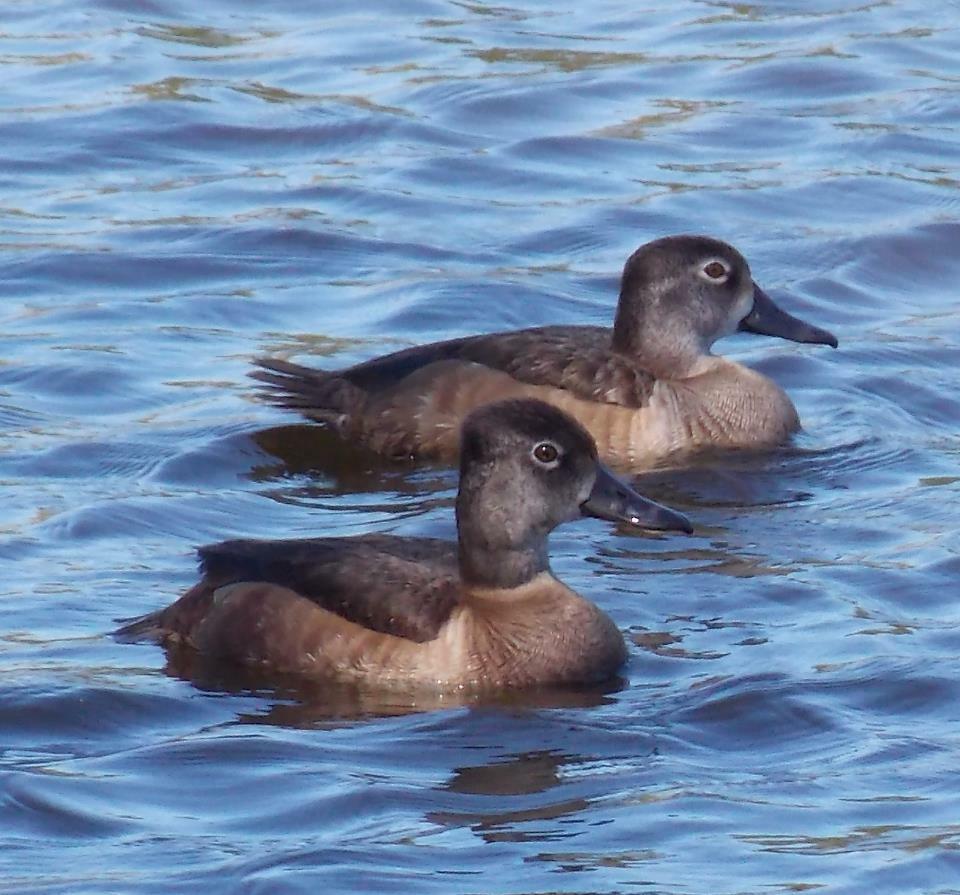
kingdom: Animalia
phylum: Chordata
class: Aves
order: Anseriformes
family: Anatidae
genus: Aythya
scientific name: Aythya collaris
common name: Ring-necked duck
